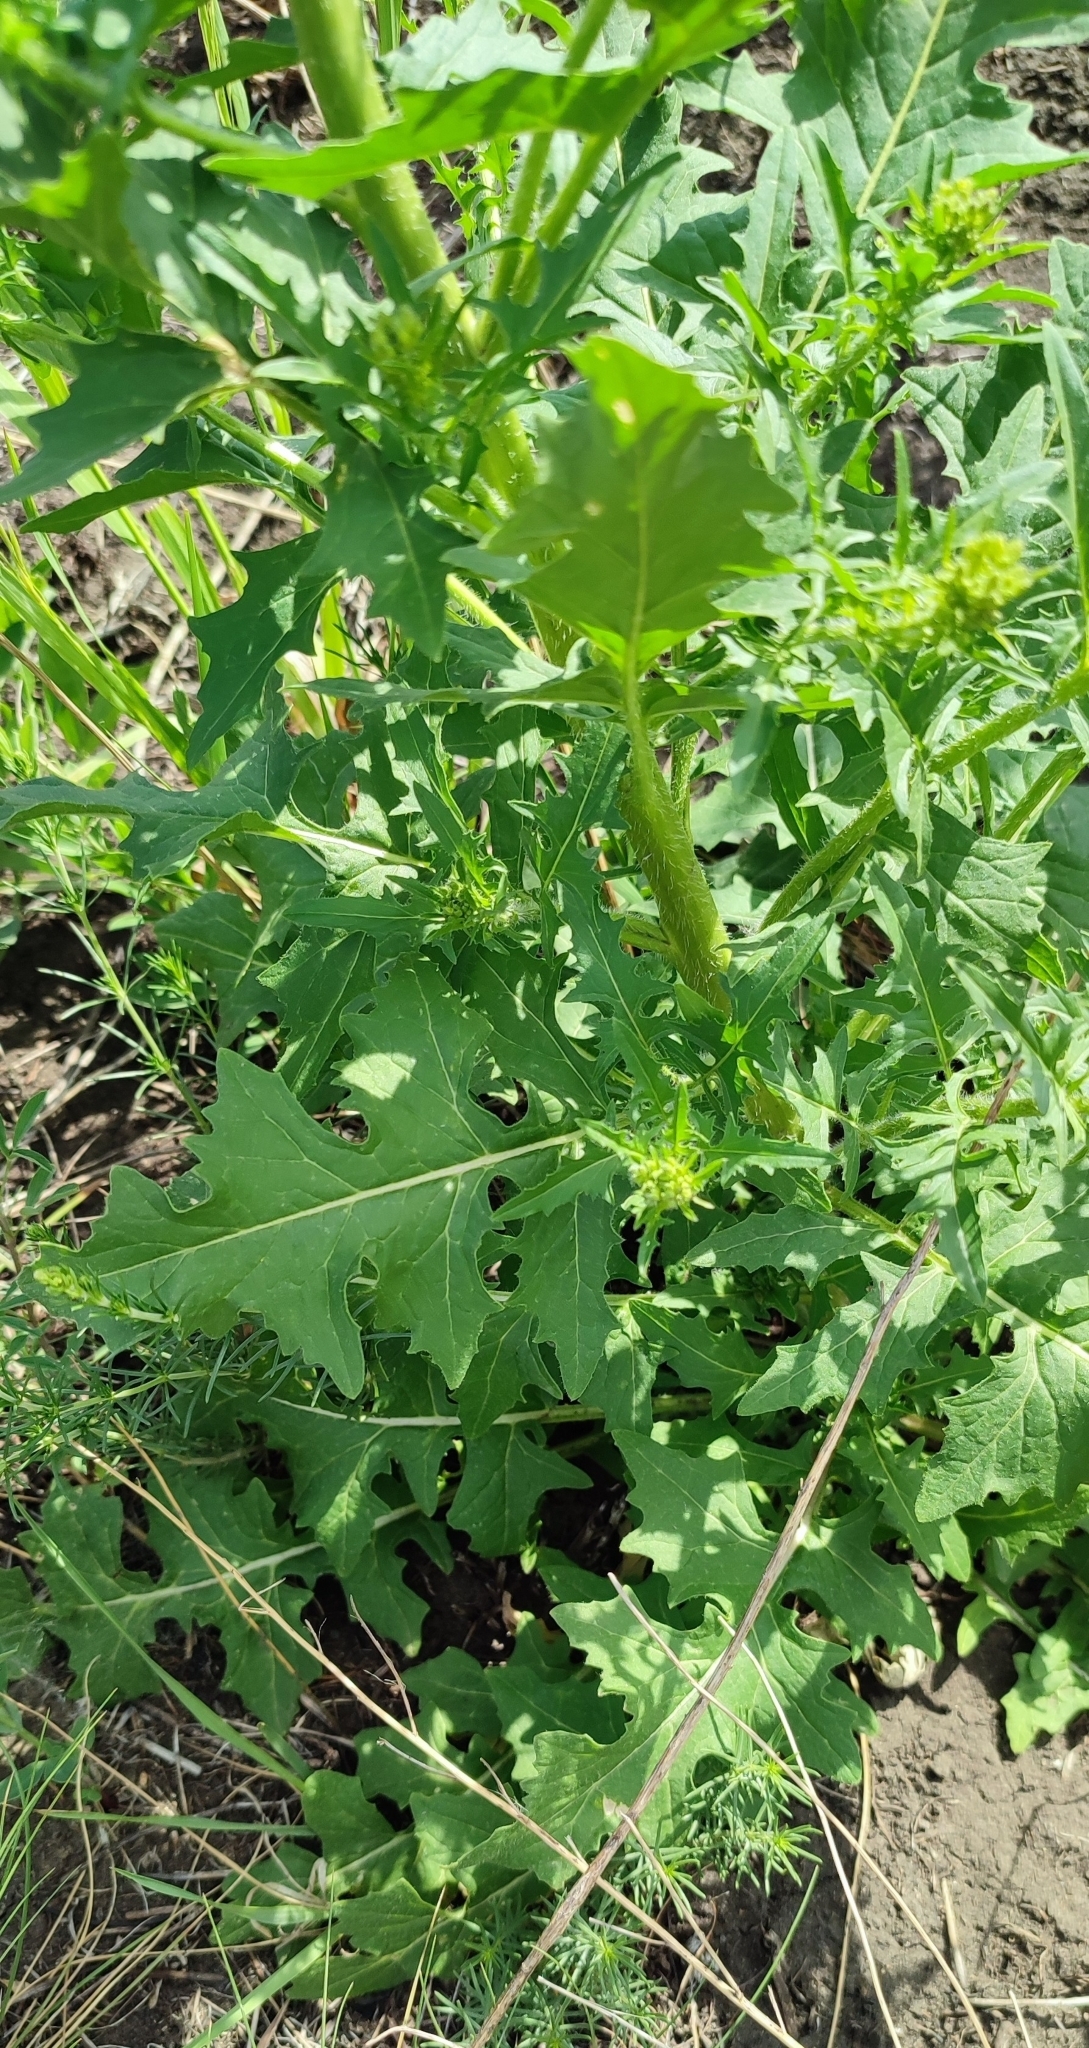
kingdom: Plantae
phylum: Tracheophyta
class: Magnoliopsida
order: Brassicales
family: Brassicaceae
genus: Sisymbrium
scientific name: Sisymbrium loeselii
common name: False london-rocket
